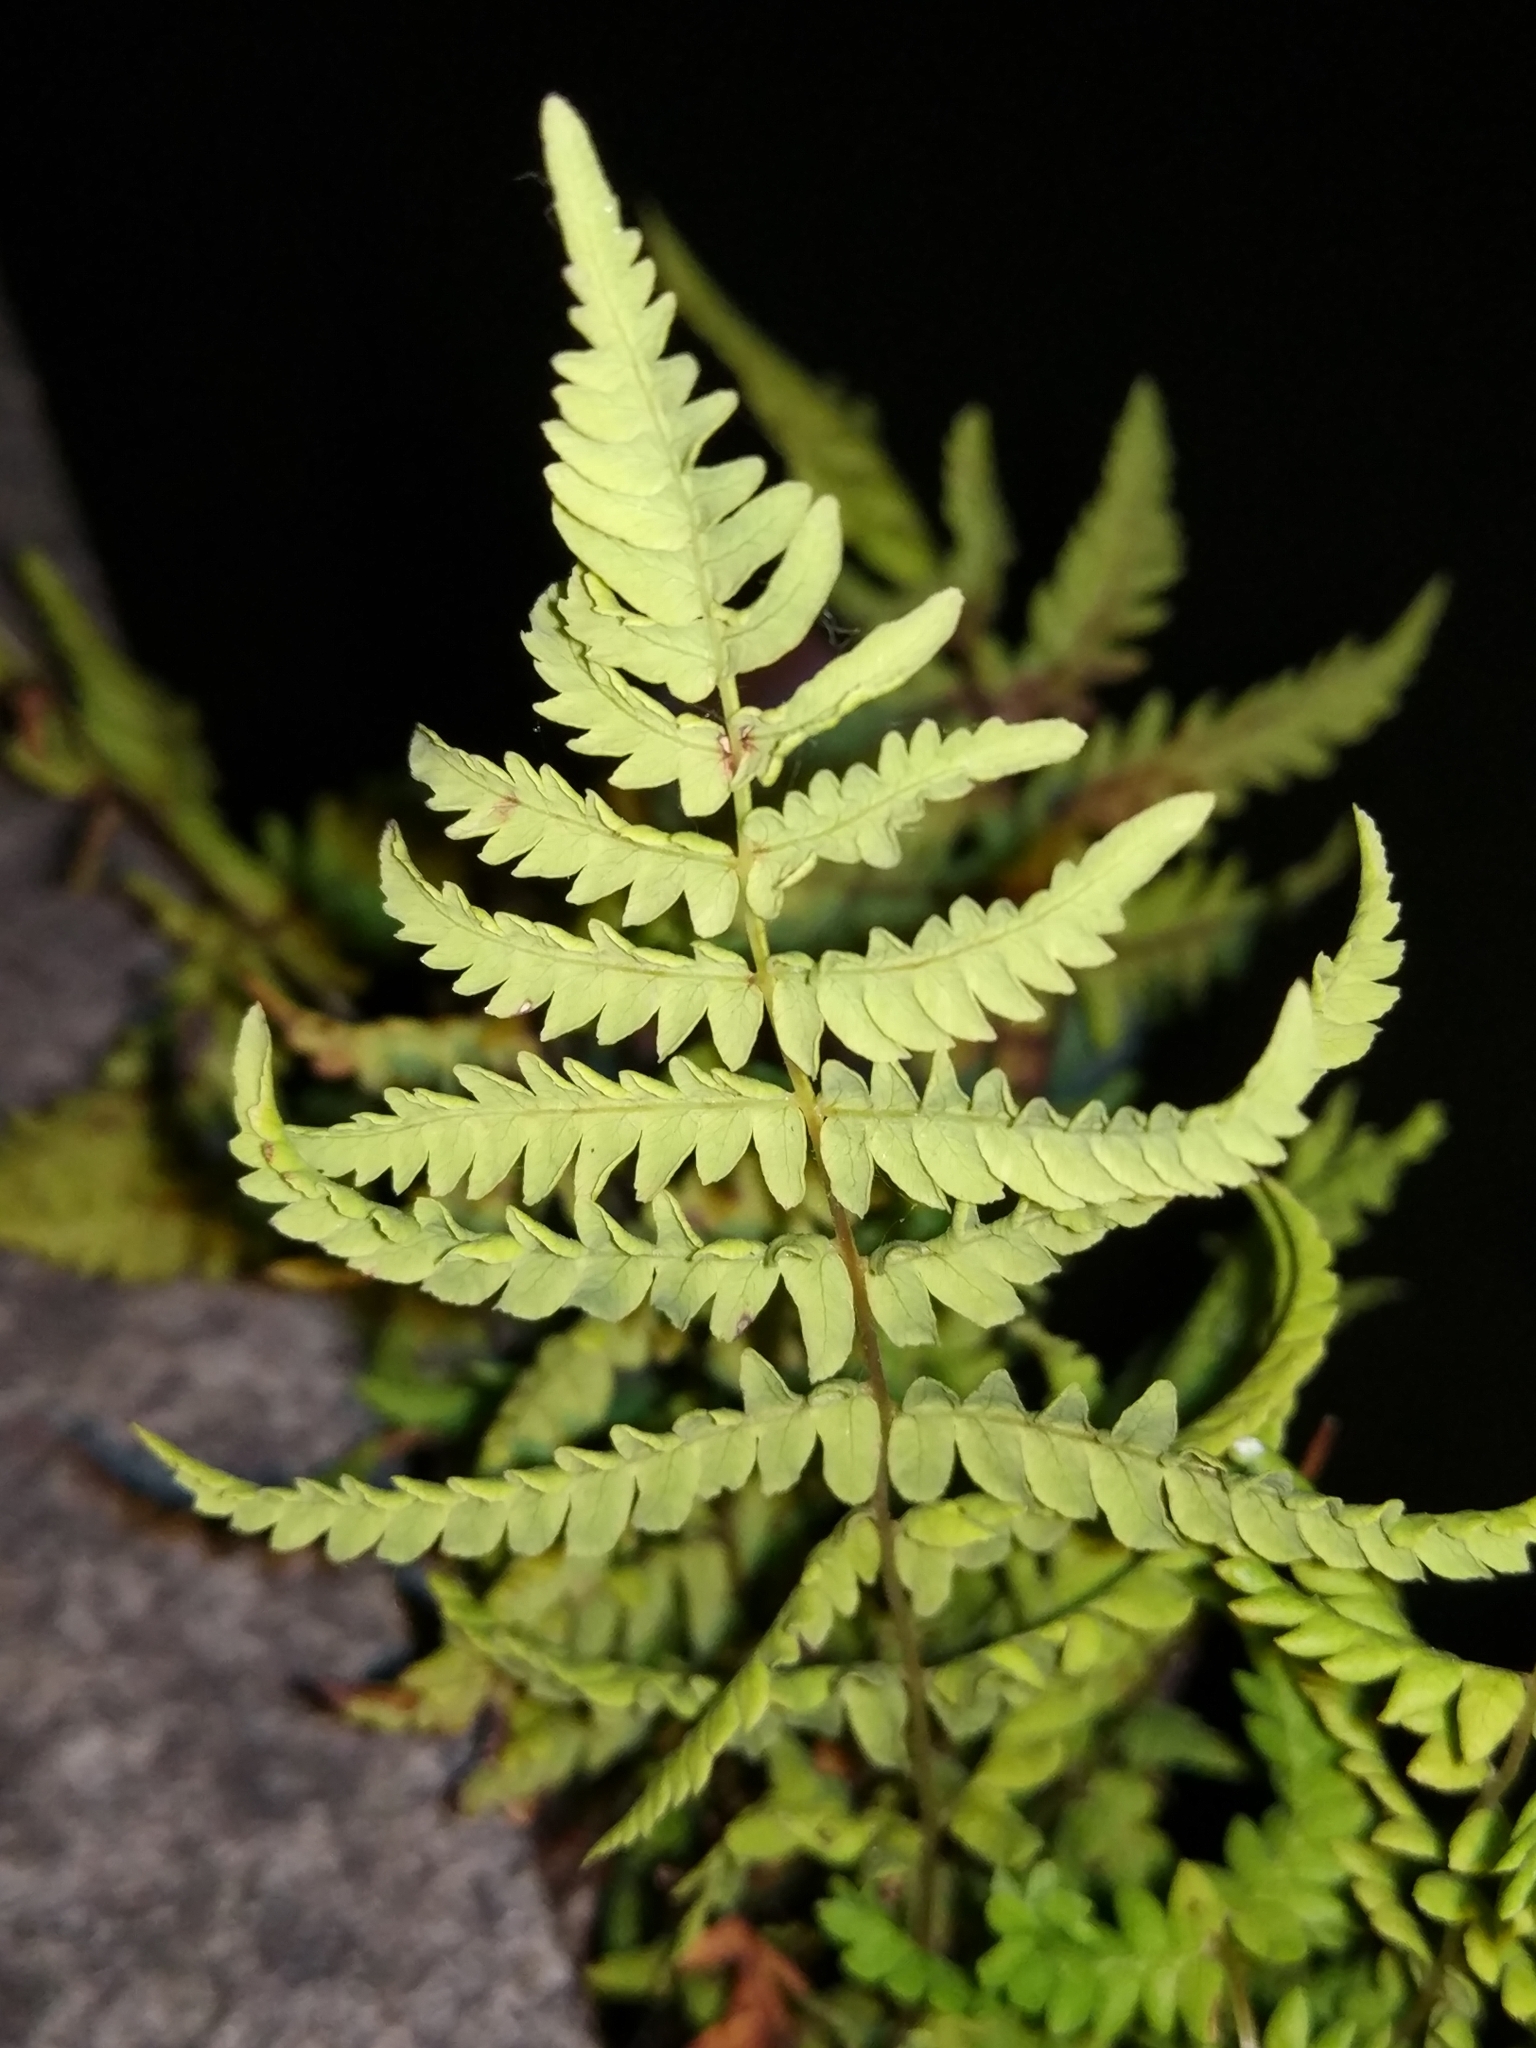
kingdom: Plantae
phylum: Tracheophyta
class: Polypodiopsida
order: Polypodiales
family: Thelypteridaceae
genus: Thelypteris
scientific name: Thelypteris palustris
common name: Marsh fern
